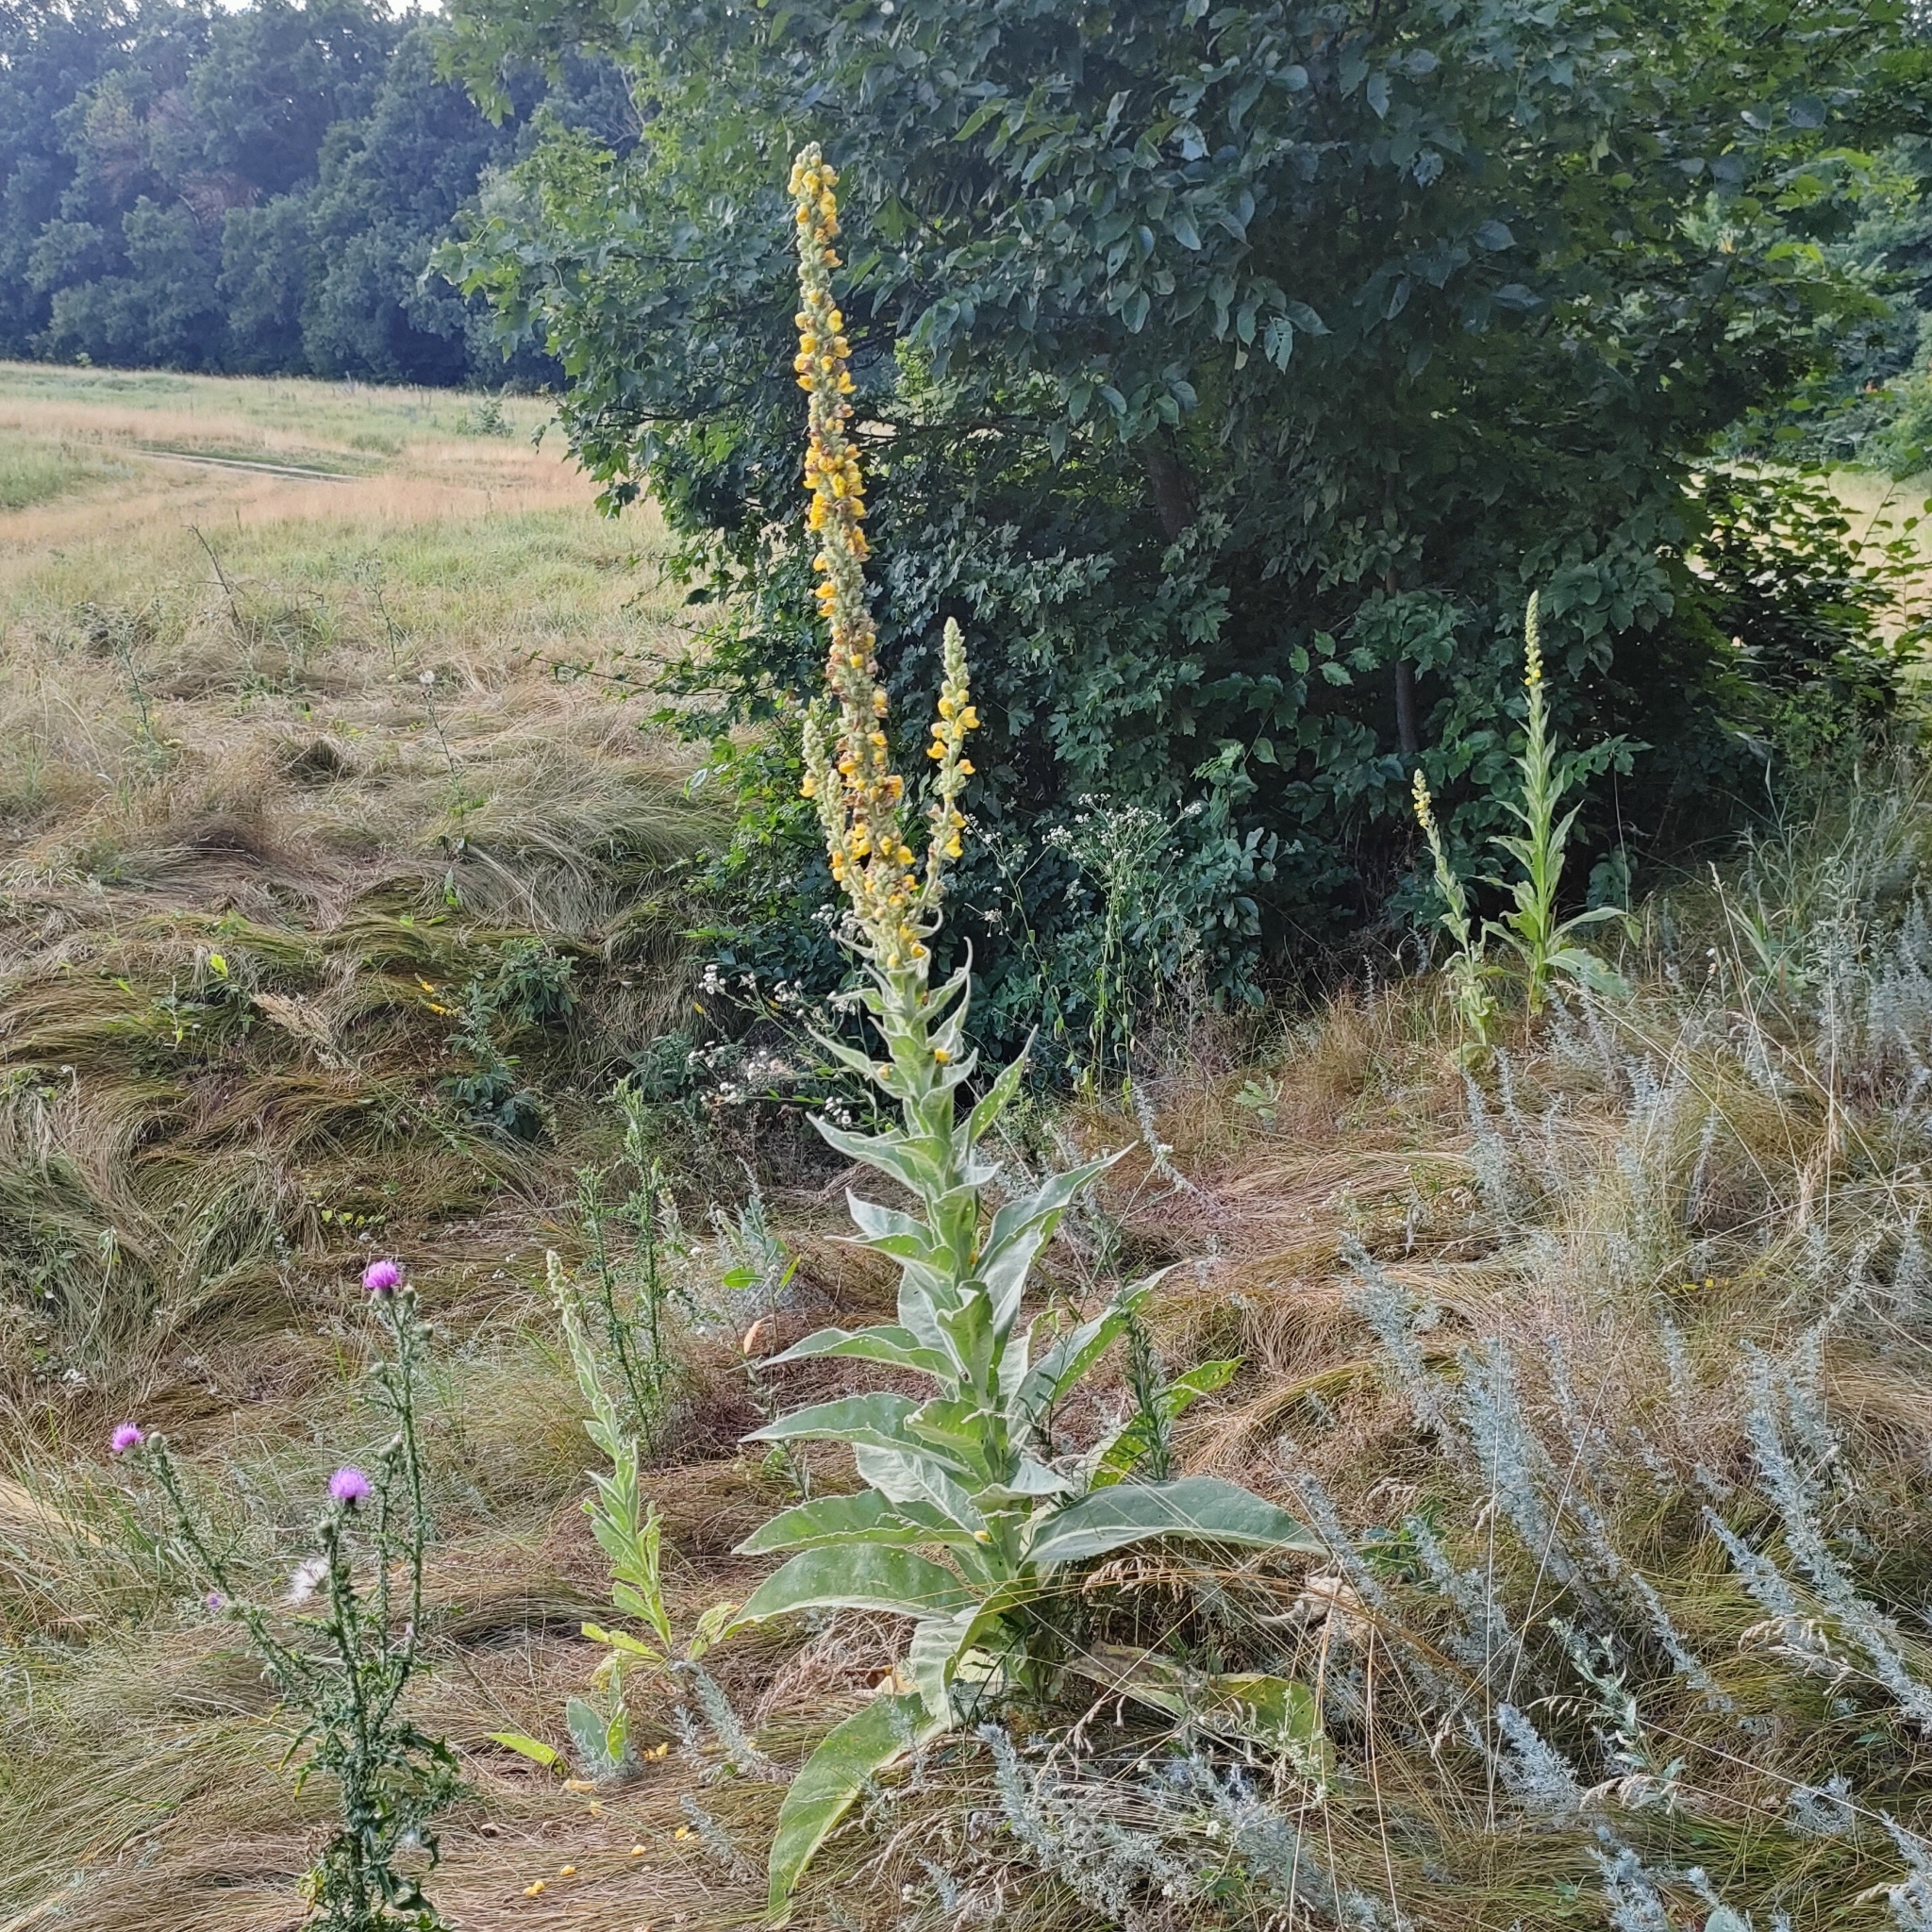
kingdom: Plantae
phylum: Tracheophyta
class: Magnoliopsida
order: Lamiales
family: Scrophulariaceae
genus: Verbascum
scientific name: Verbascum densiflorum
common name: Dense-flowered mullein
